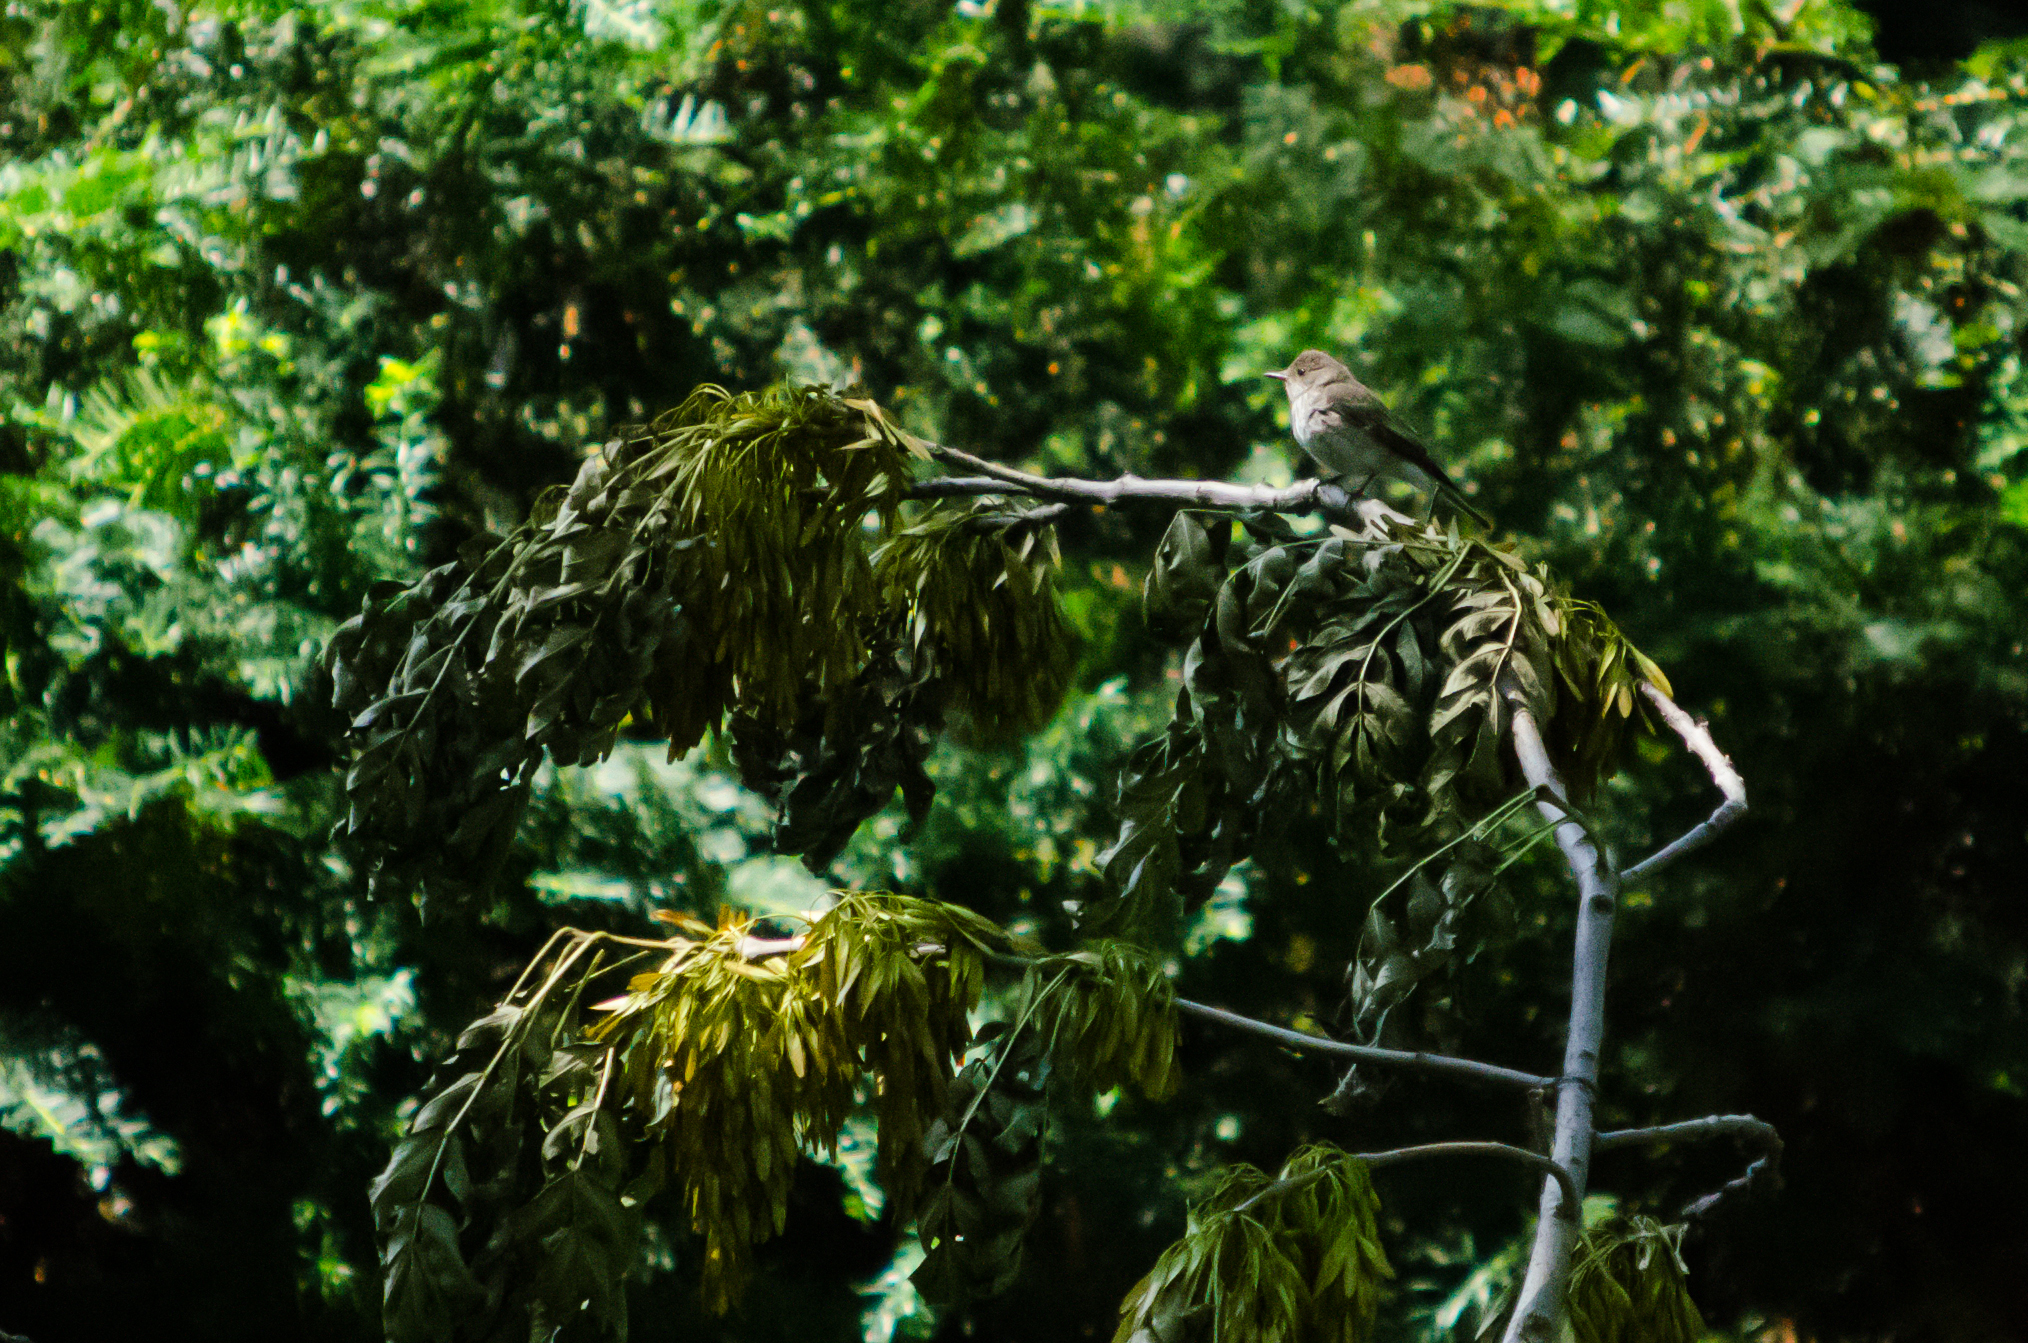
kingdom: Animalia
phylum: Chordata
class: Aves
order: Passeriformes
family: Muscicapidae
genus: Muscicapa
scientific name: Muscicapa striata
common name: Spotted flycatcher
